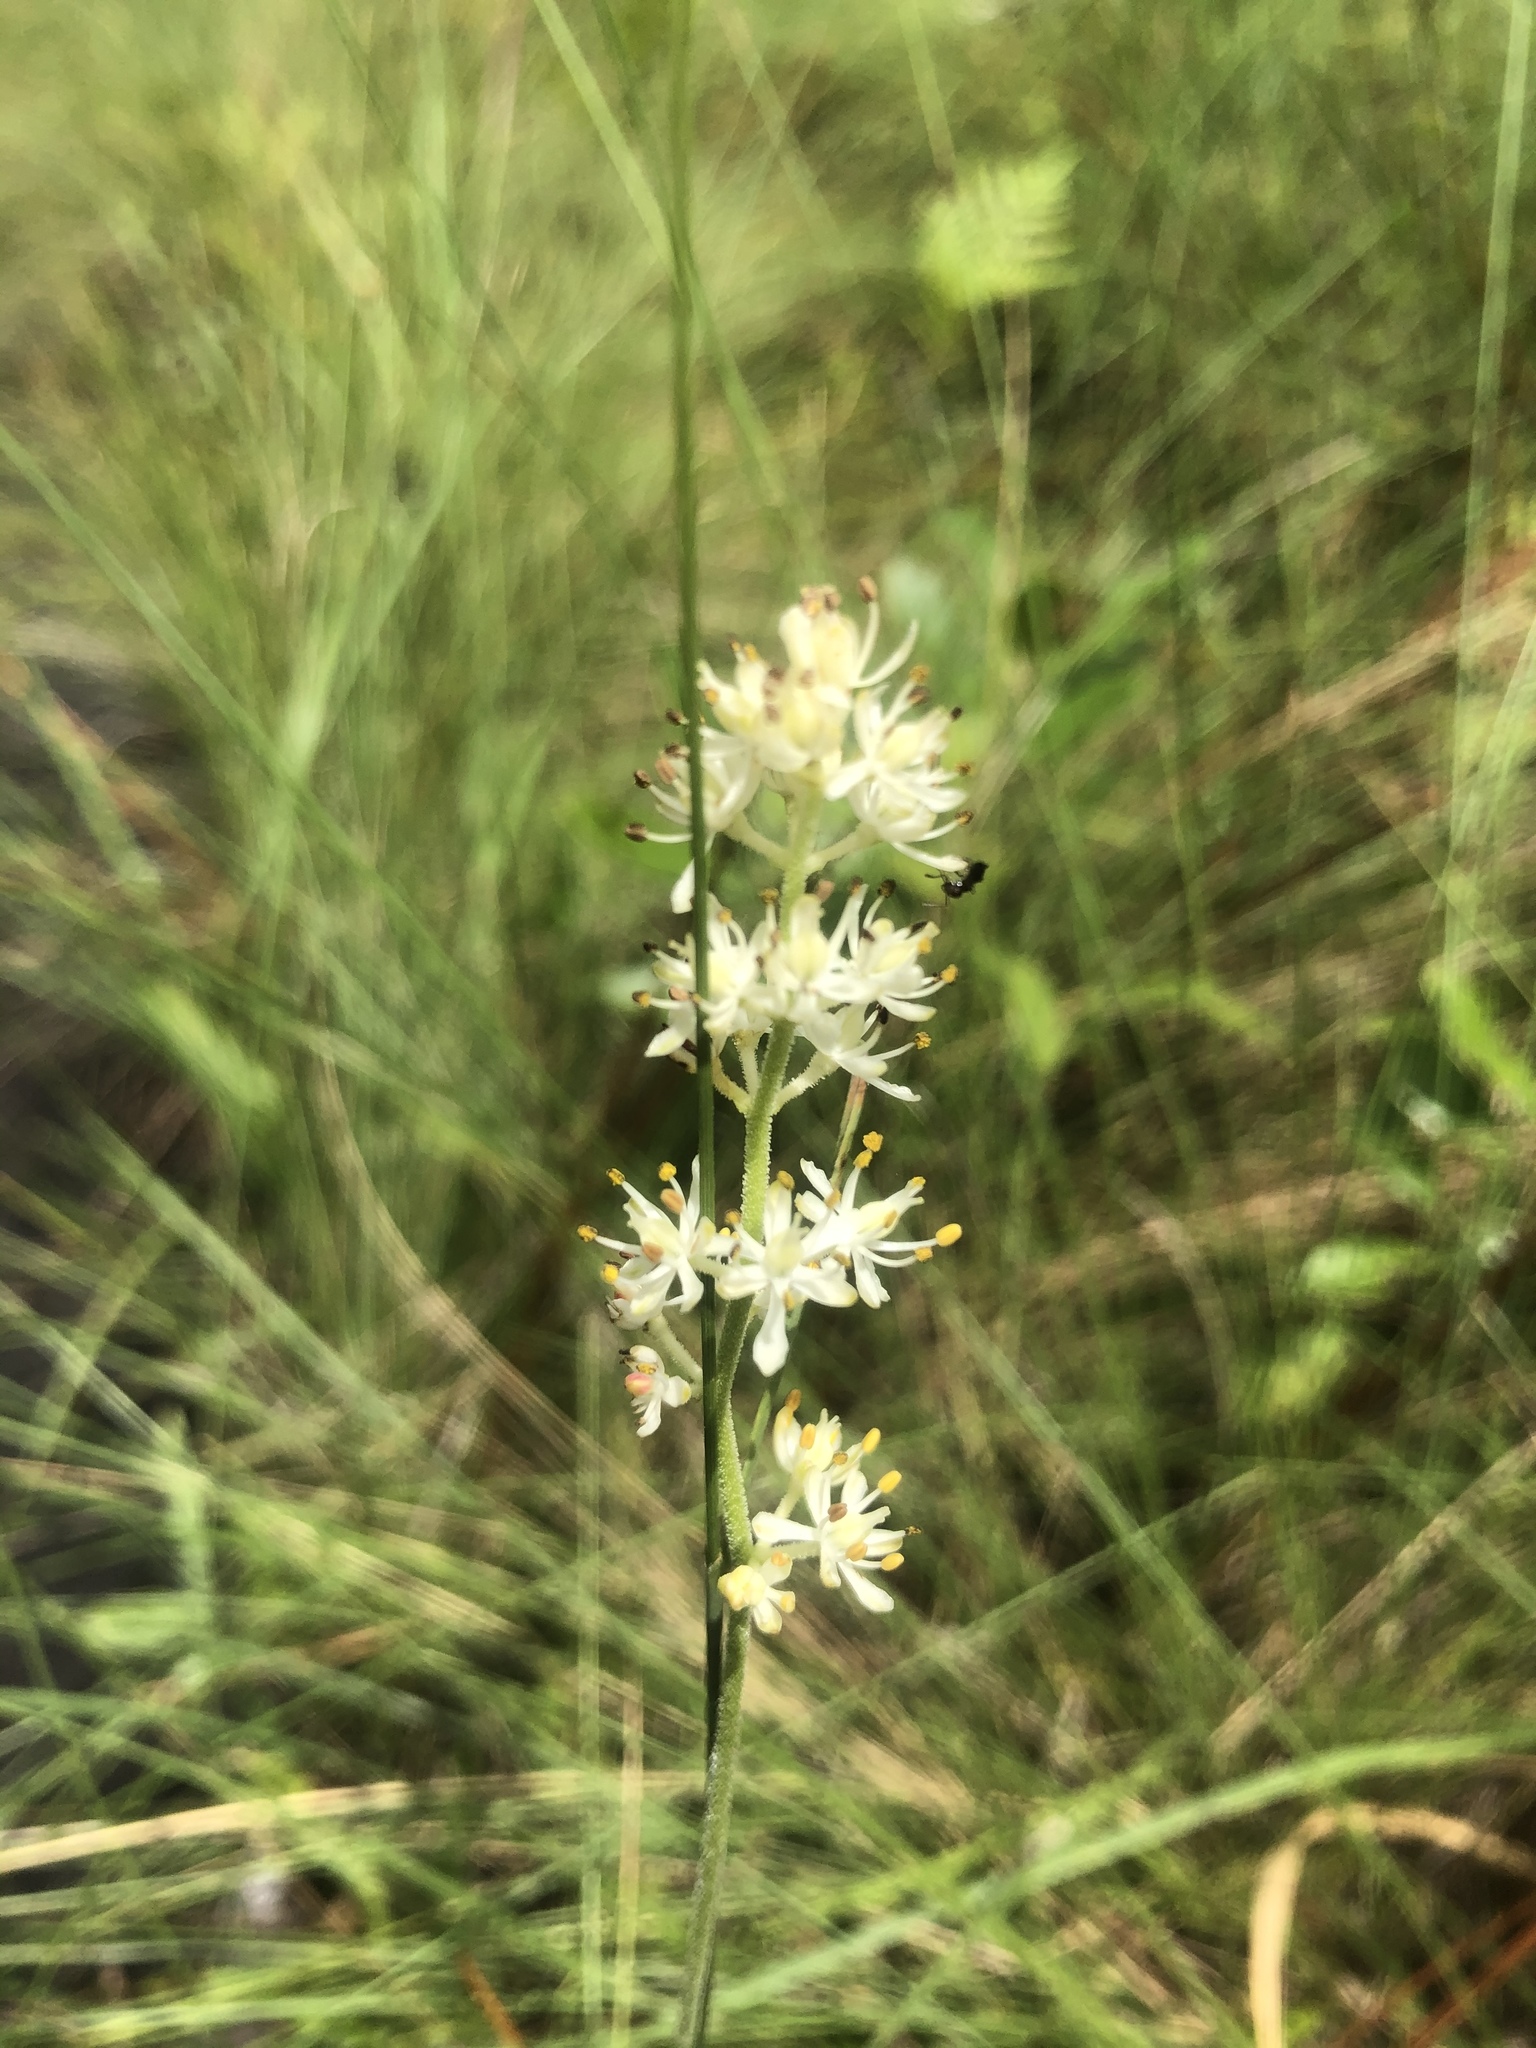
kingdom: Plantae
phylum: Tracheophyta
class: Liliopsida
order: Alismatales
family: Tofieldiaceae
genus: Triantha
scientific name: Triantha racemosa
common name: Coastal false asphodel
